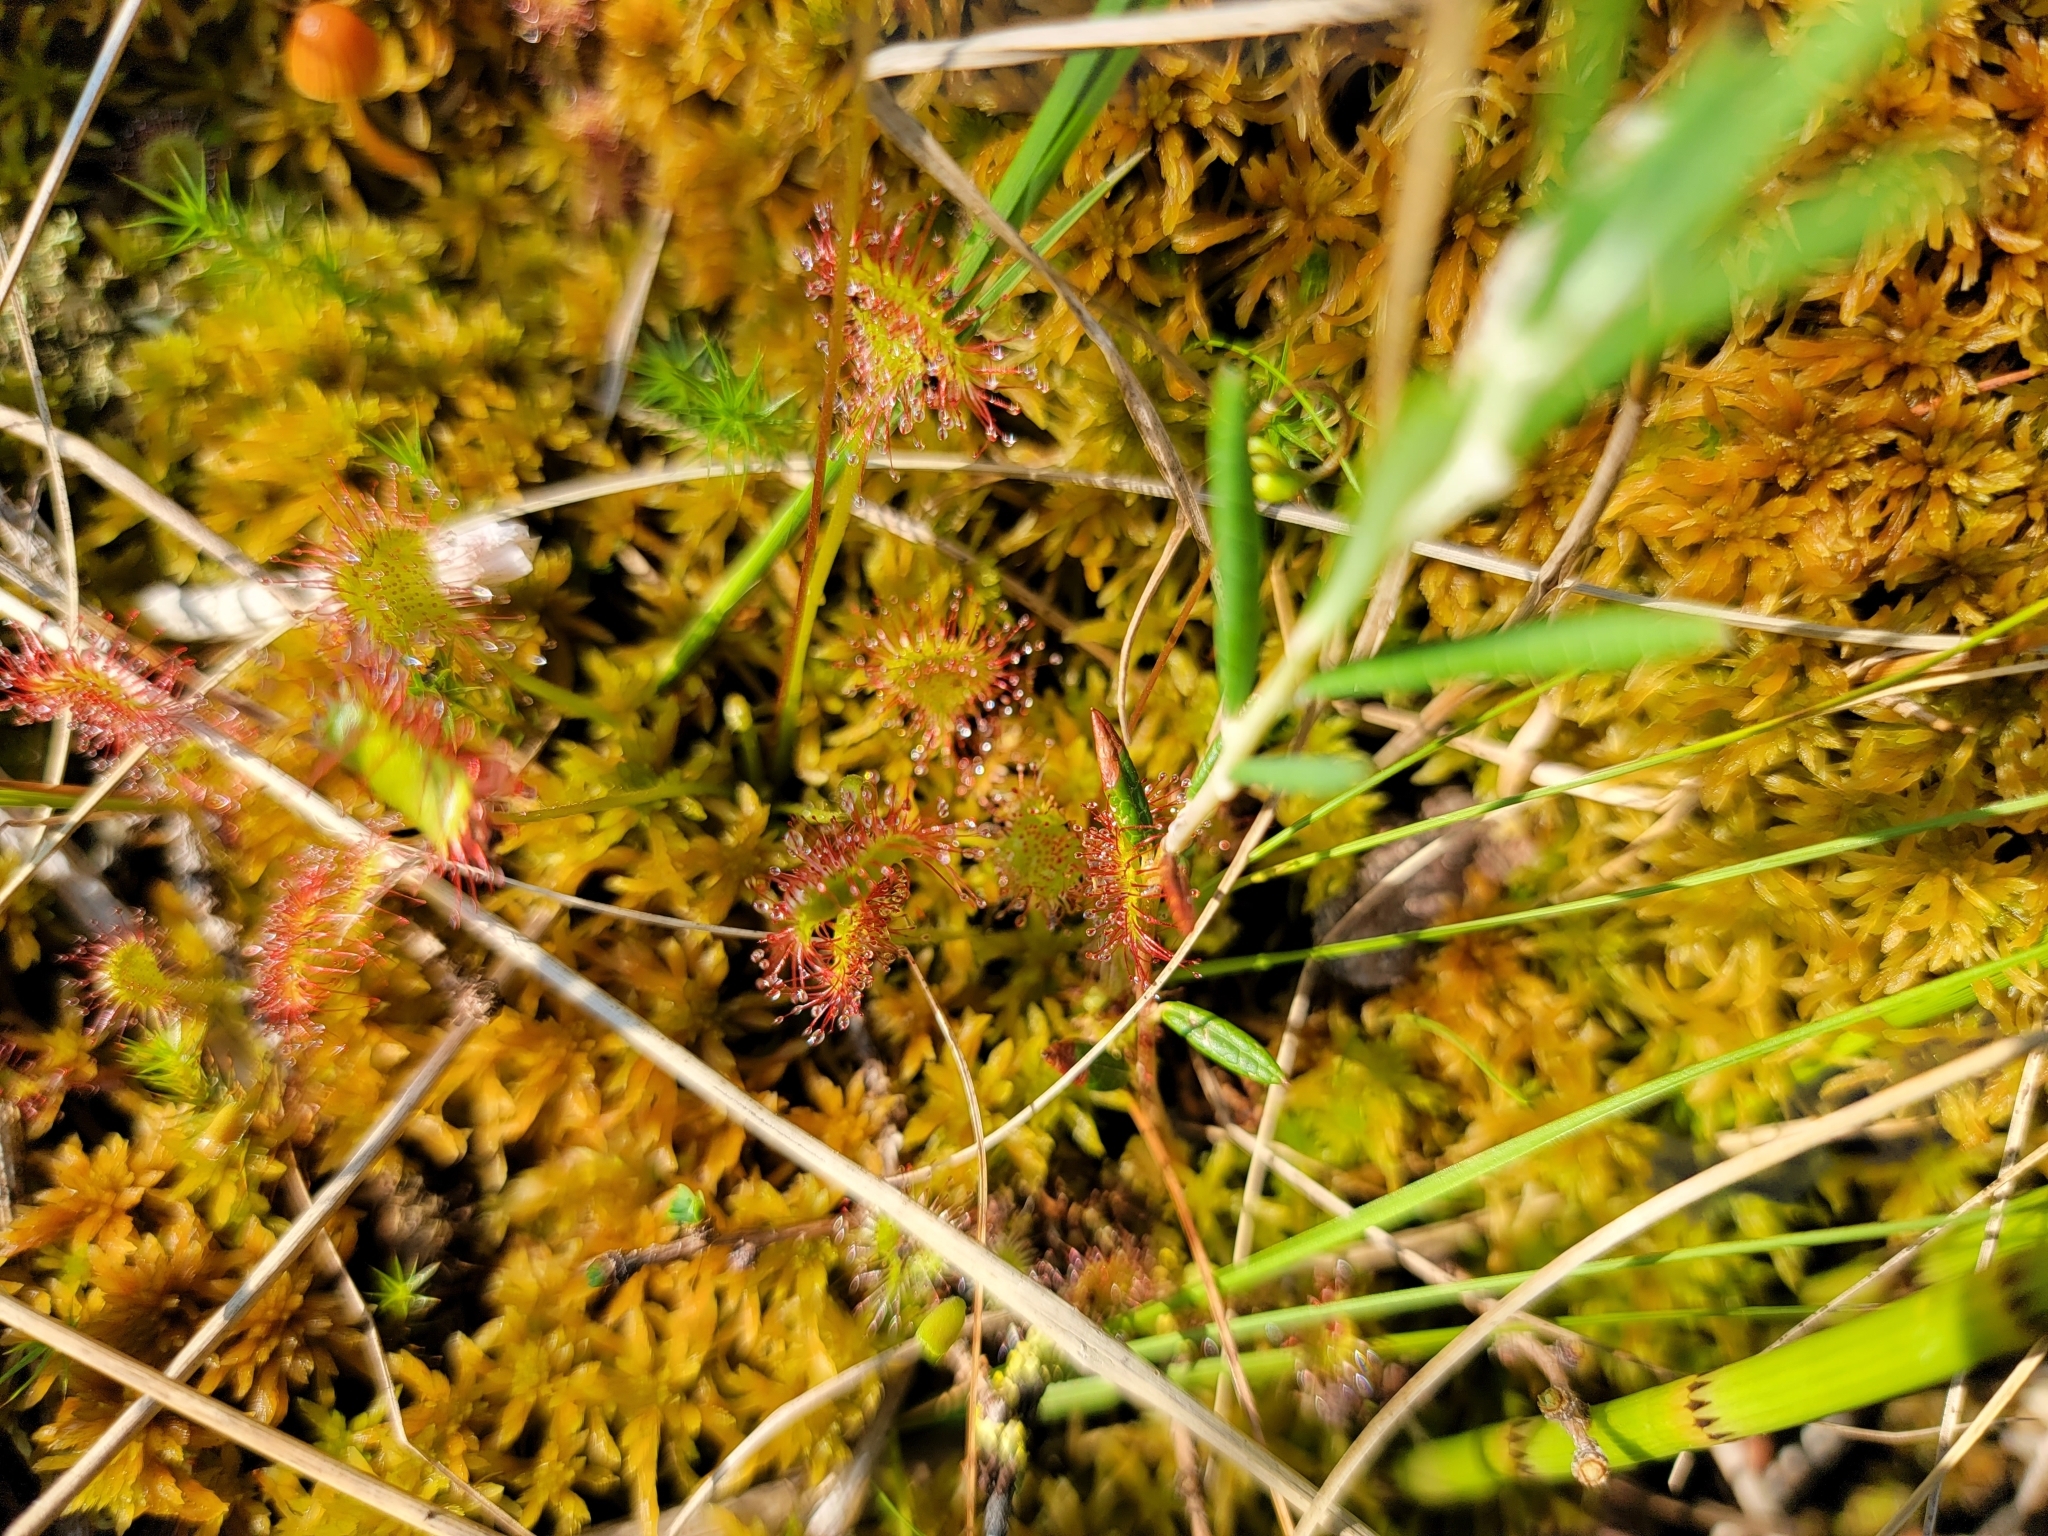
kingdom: Plantae
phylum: Tracheophyta
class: Magnoliopsida
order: Caryophyllales
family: Droseraceae
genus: Drosera
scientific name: Drosera rotundifolia
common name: Round-leaved sundew
